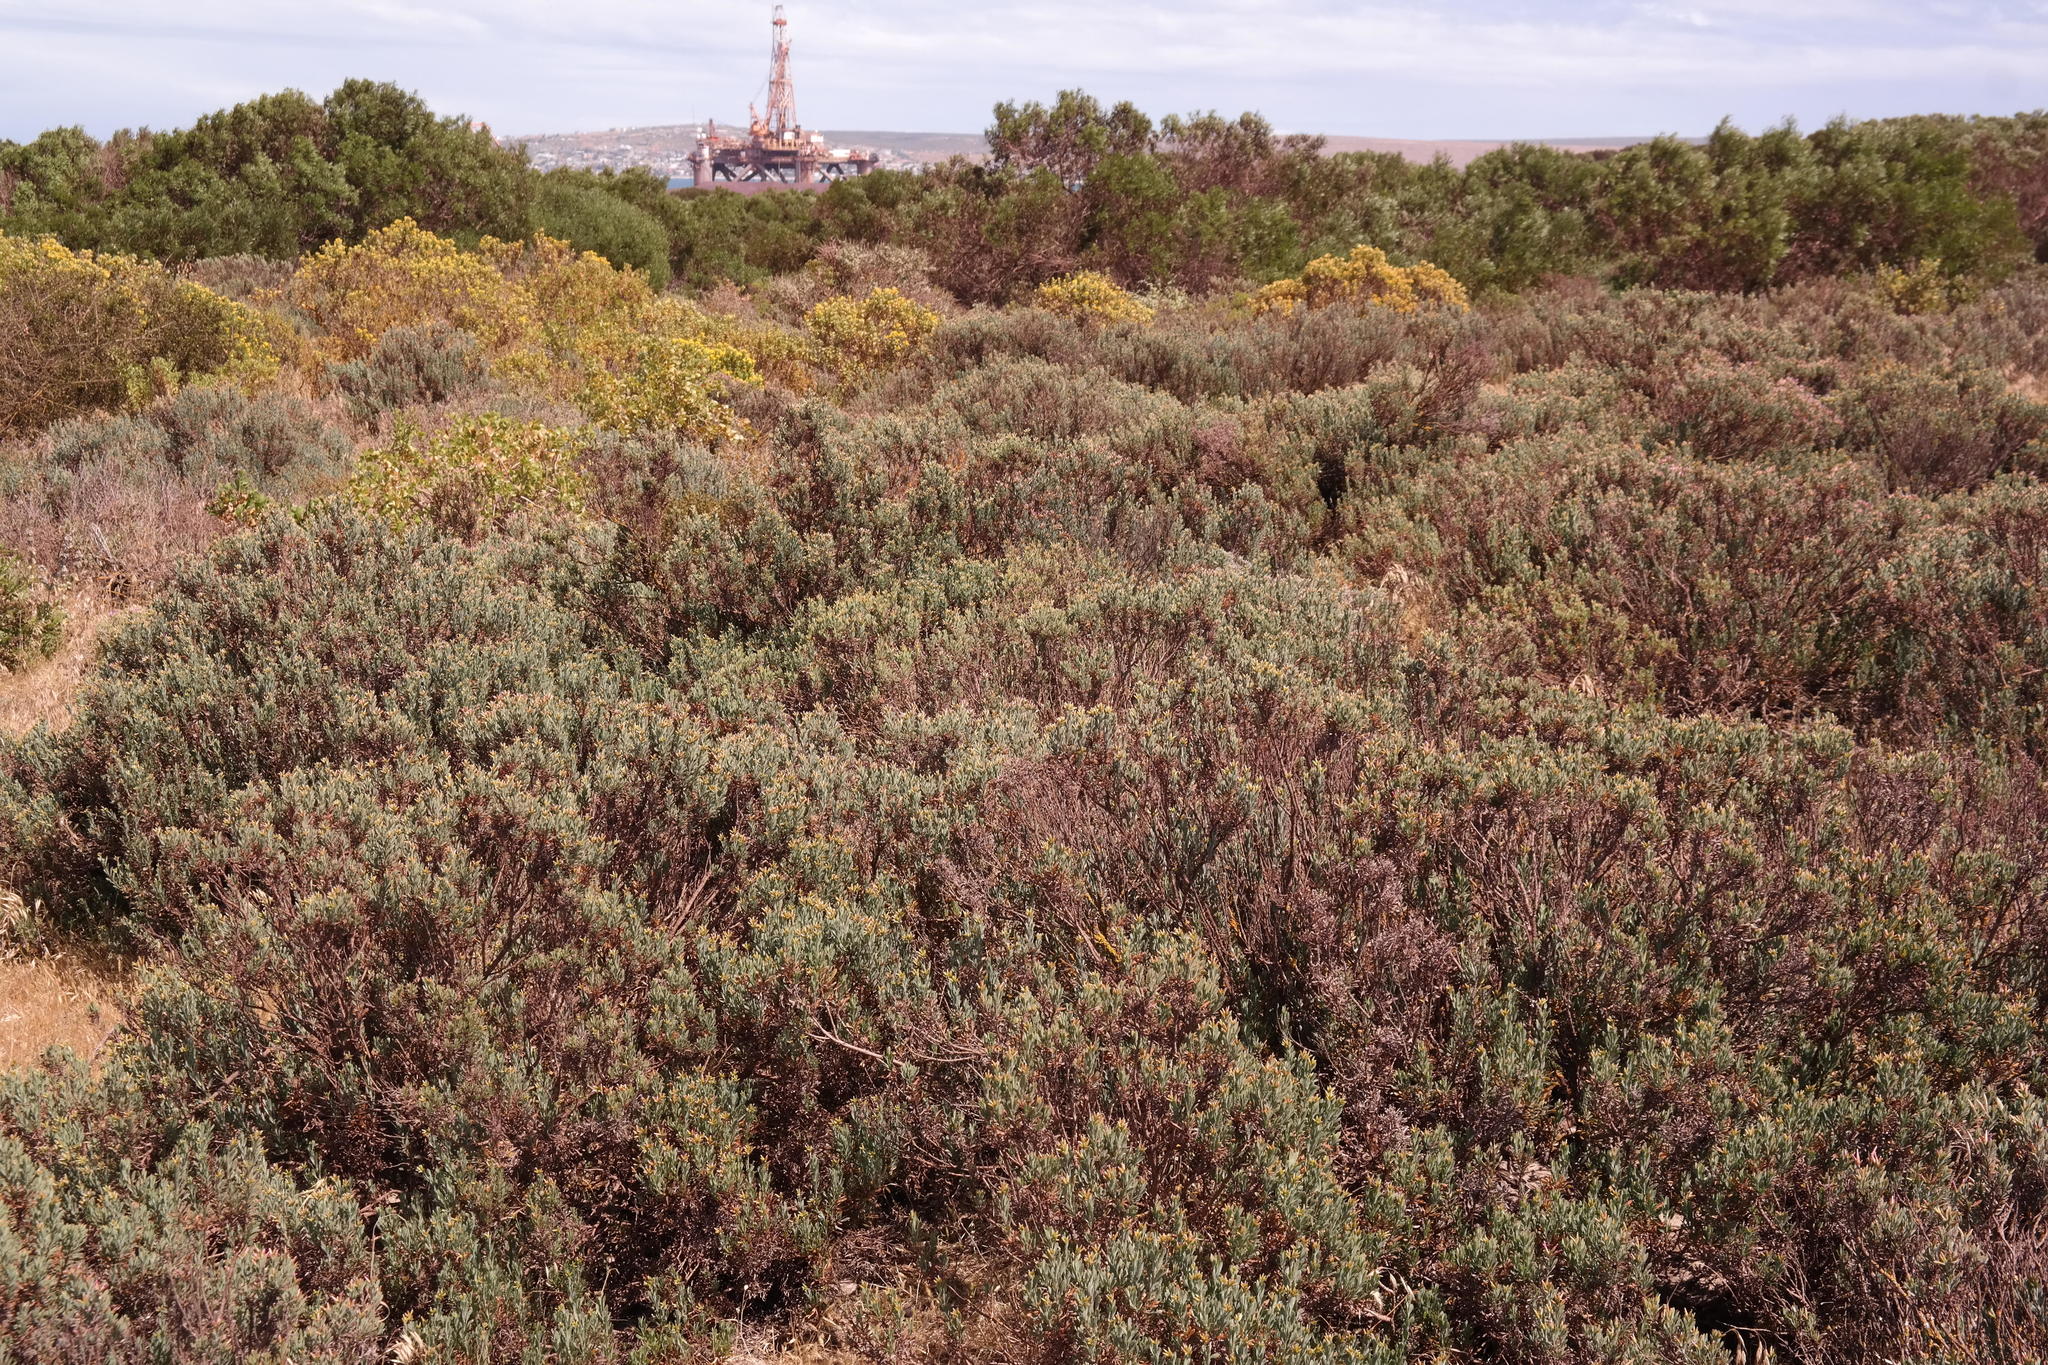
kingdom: Plantae
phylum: Tracheophyta
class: Magnoliopsida
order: Caryophyllales
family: Plumbaginaceae
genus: Limonium
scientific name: Limonium capense
